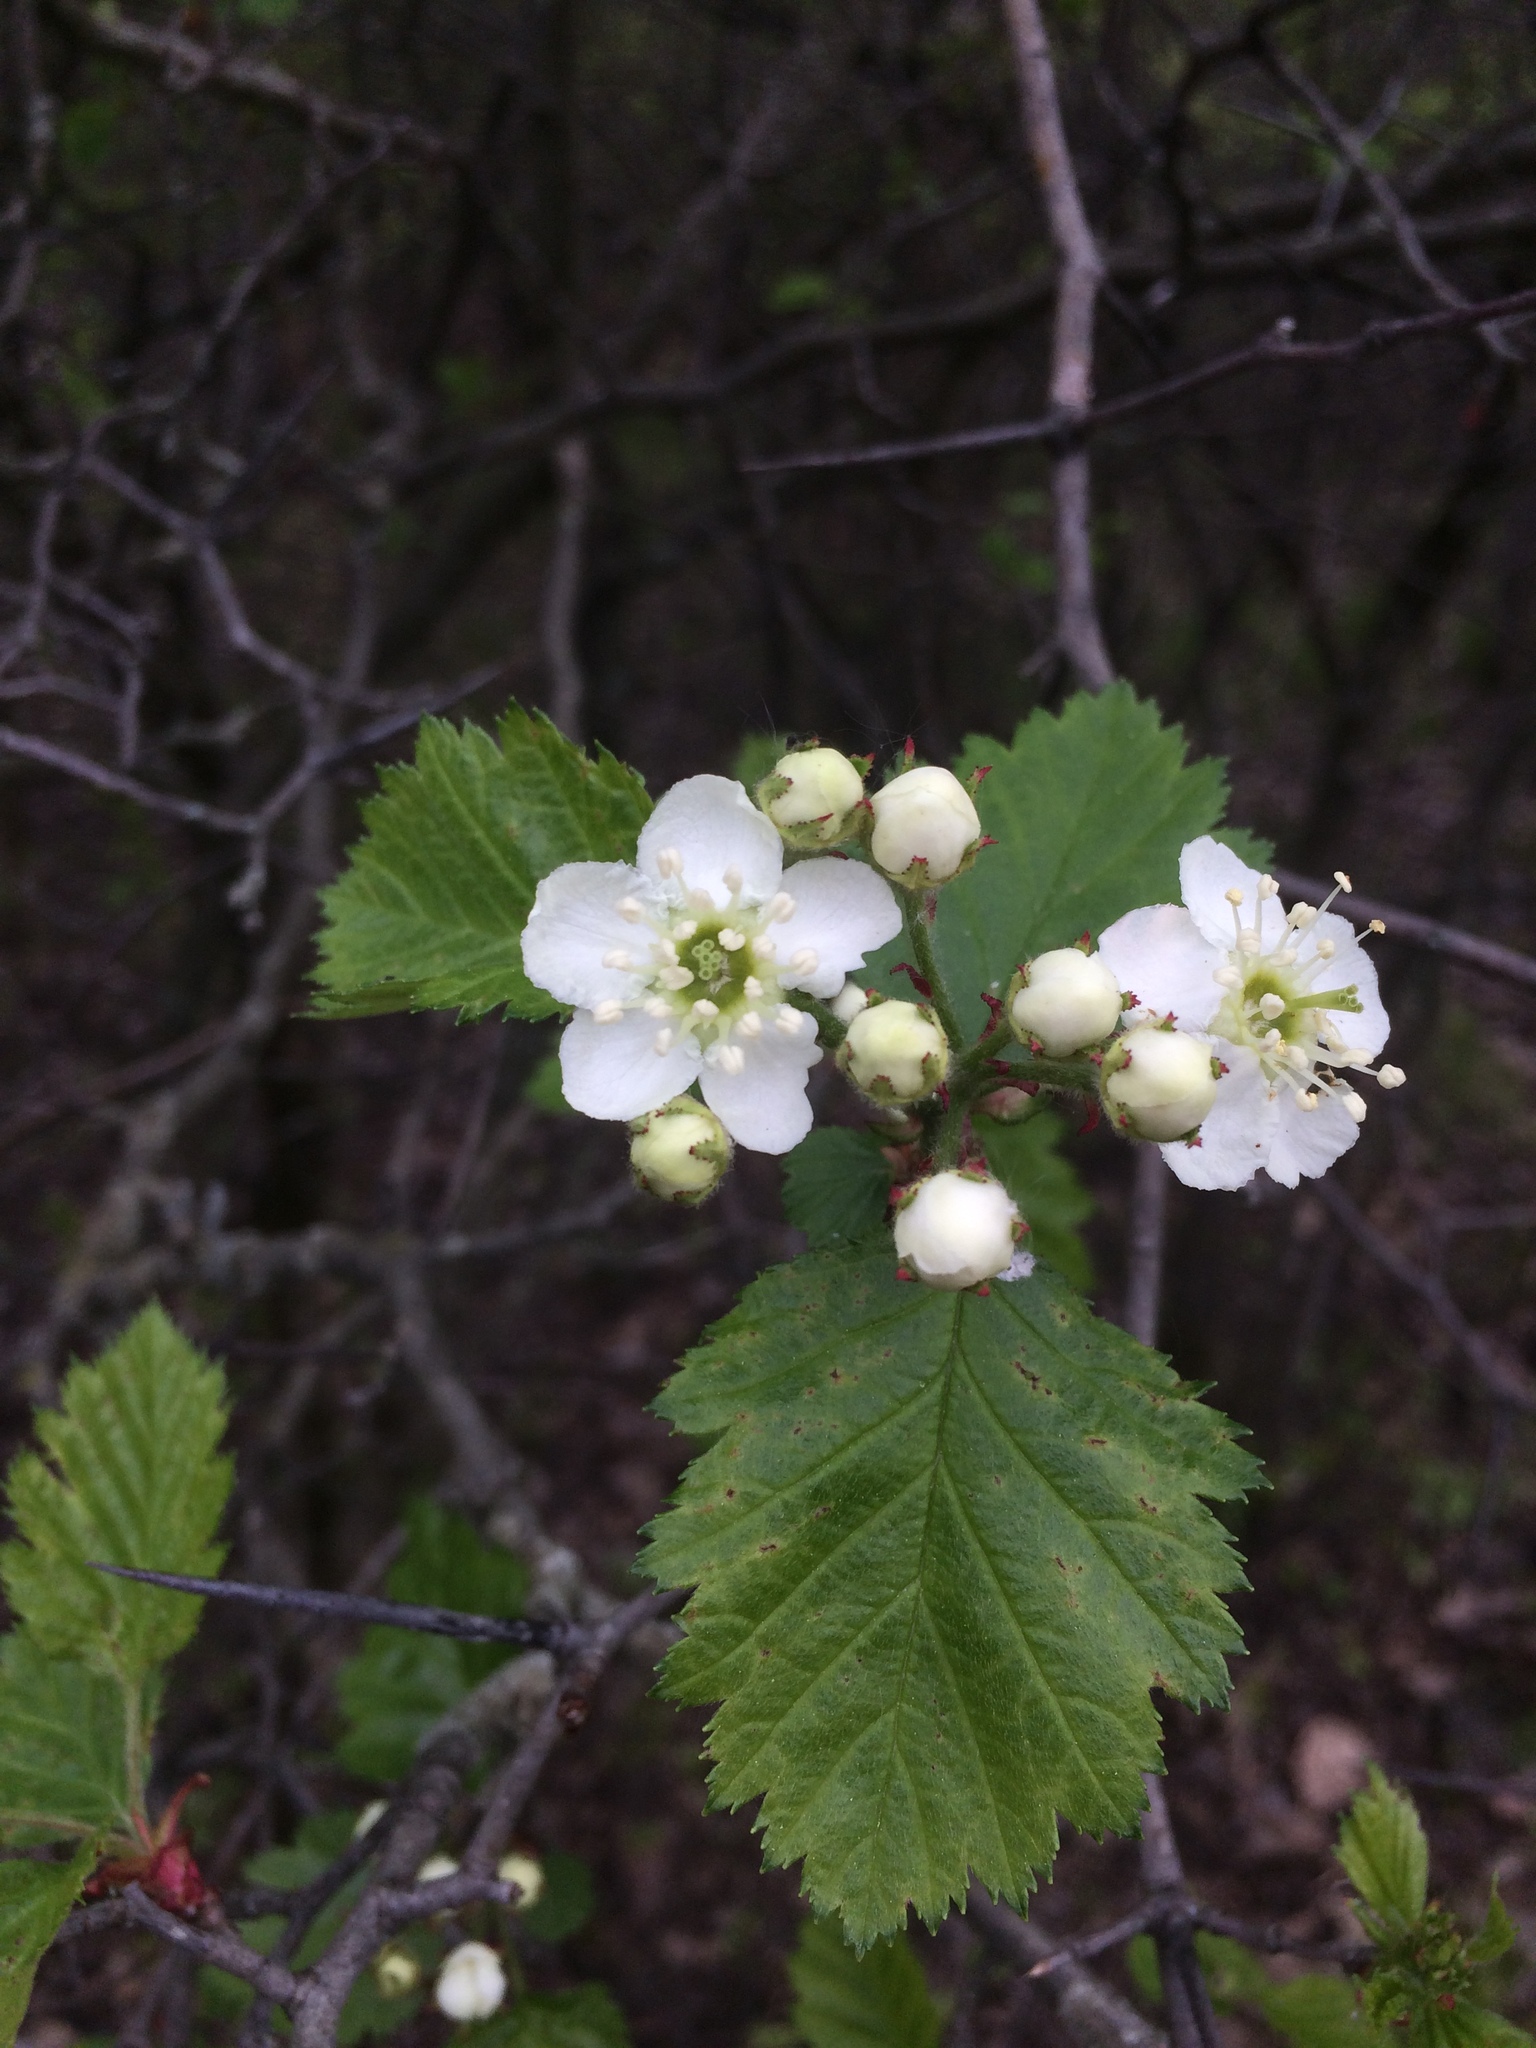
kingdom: Plantae
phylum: Tracheophyta
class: Magnoliopsida
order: Rosales
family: Rosaceae
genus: Crataegus
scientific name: Crataegus submollis
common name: Hairy cockspurthorn
